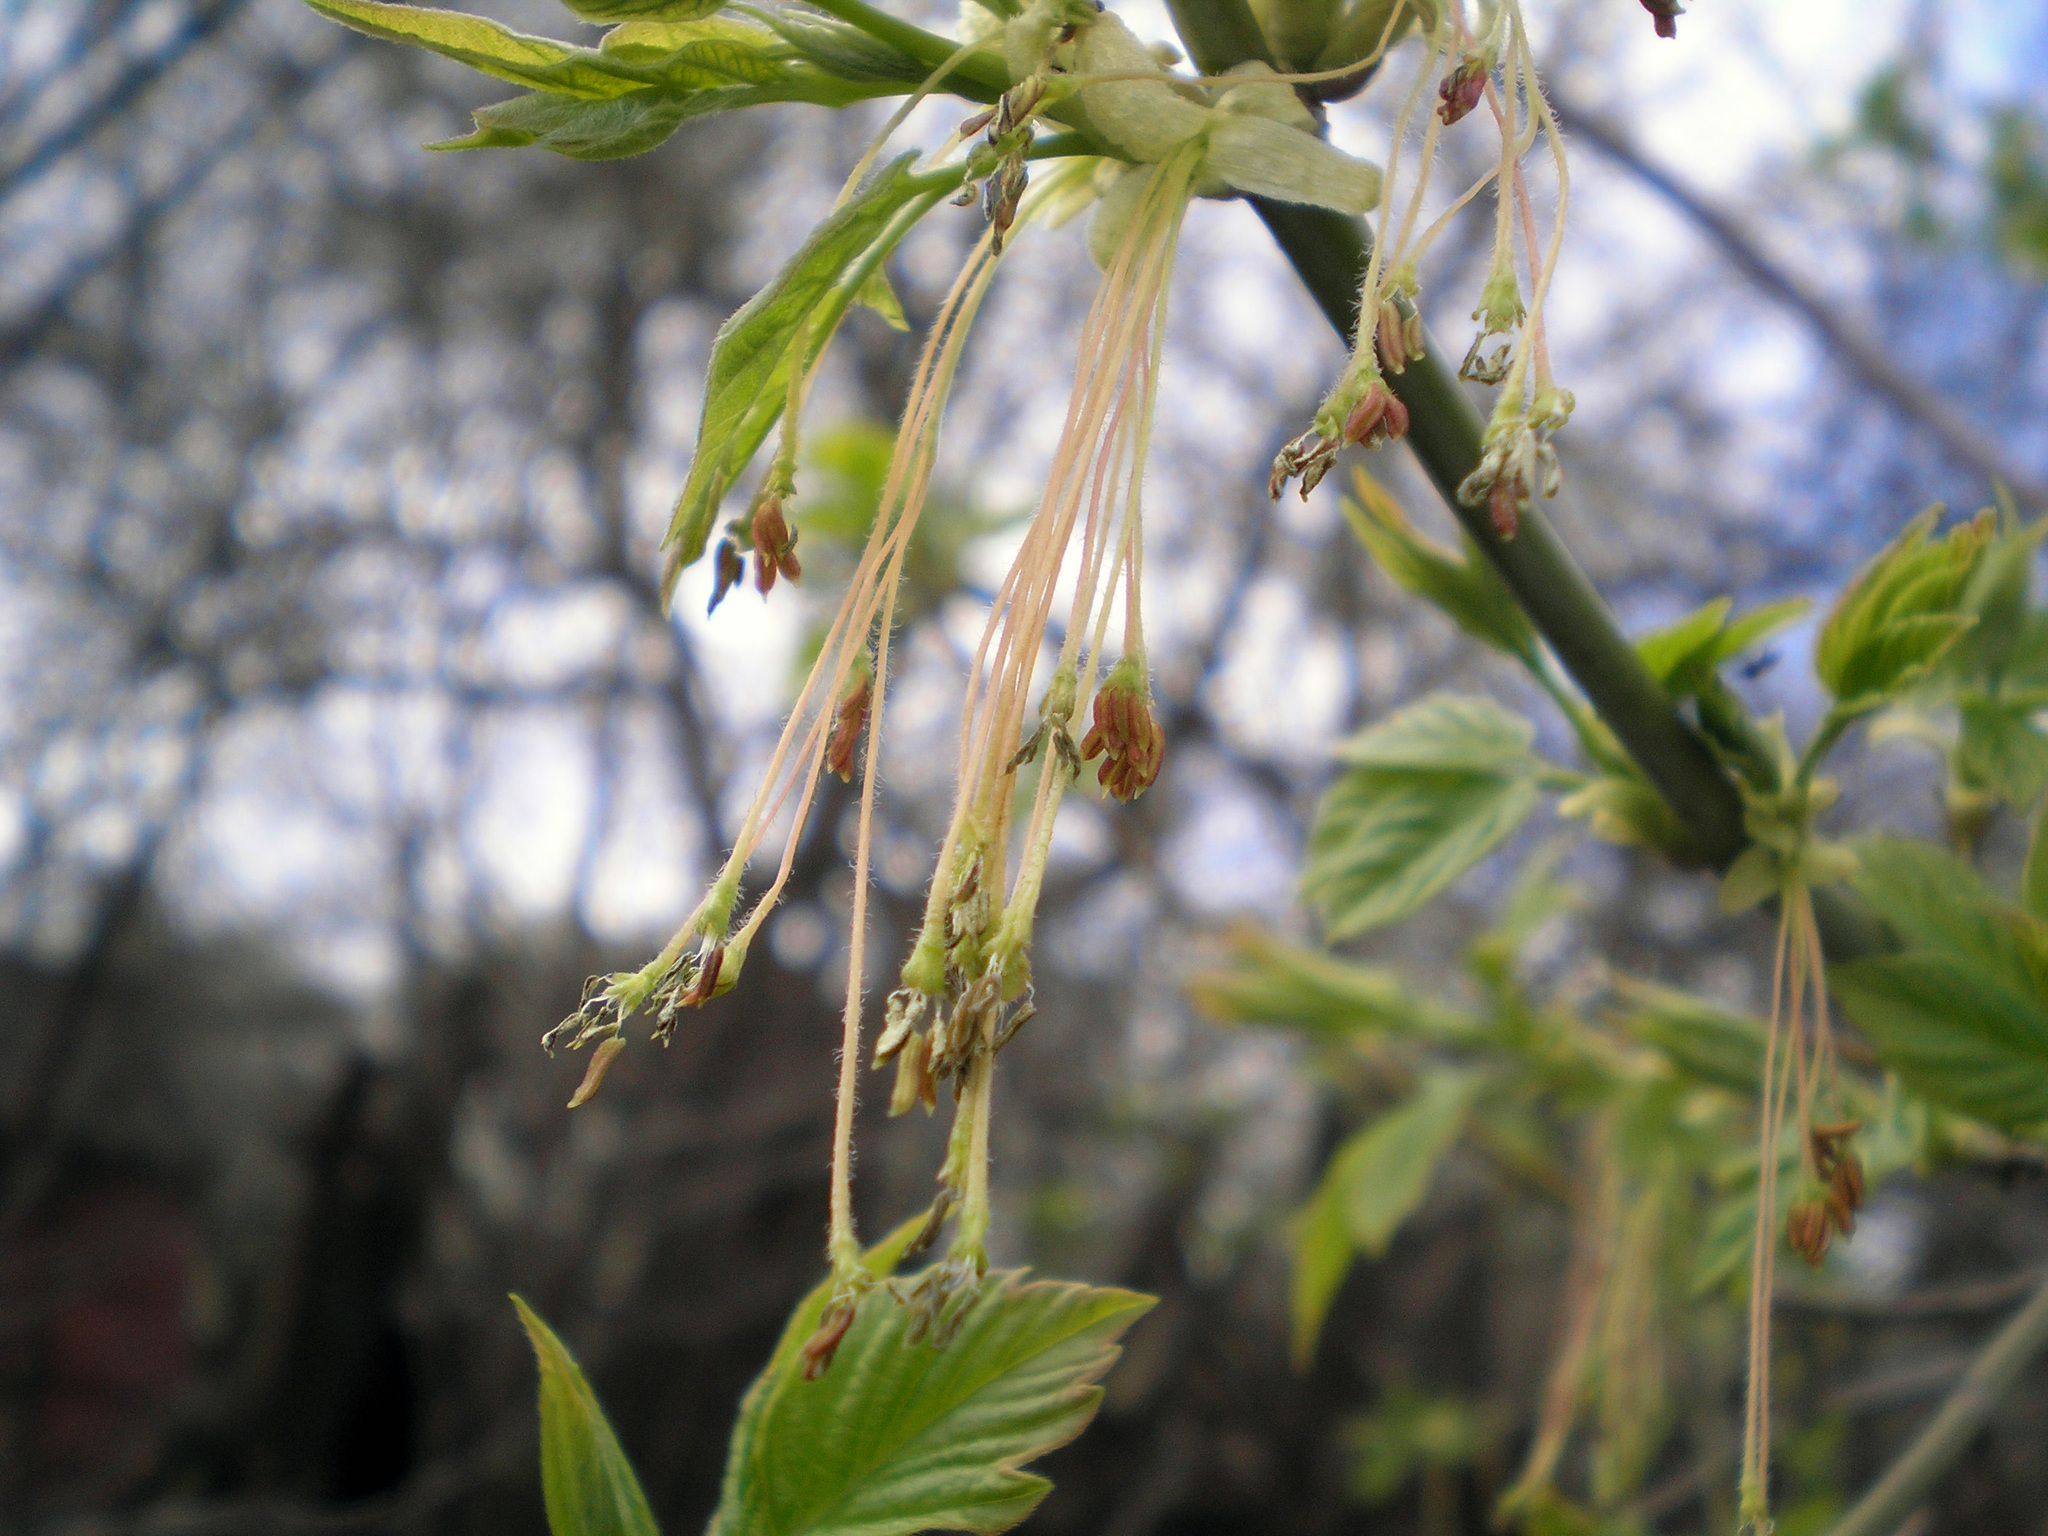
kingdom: Plantae
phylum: Tracheophyta
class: Magnoliopsida
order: Sapindales
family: Sapindaceae
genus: Acer
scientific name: Acer negundo
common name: Ashleaf maple
